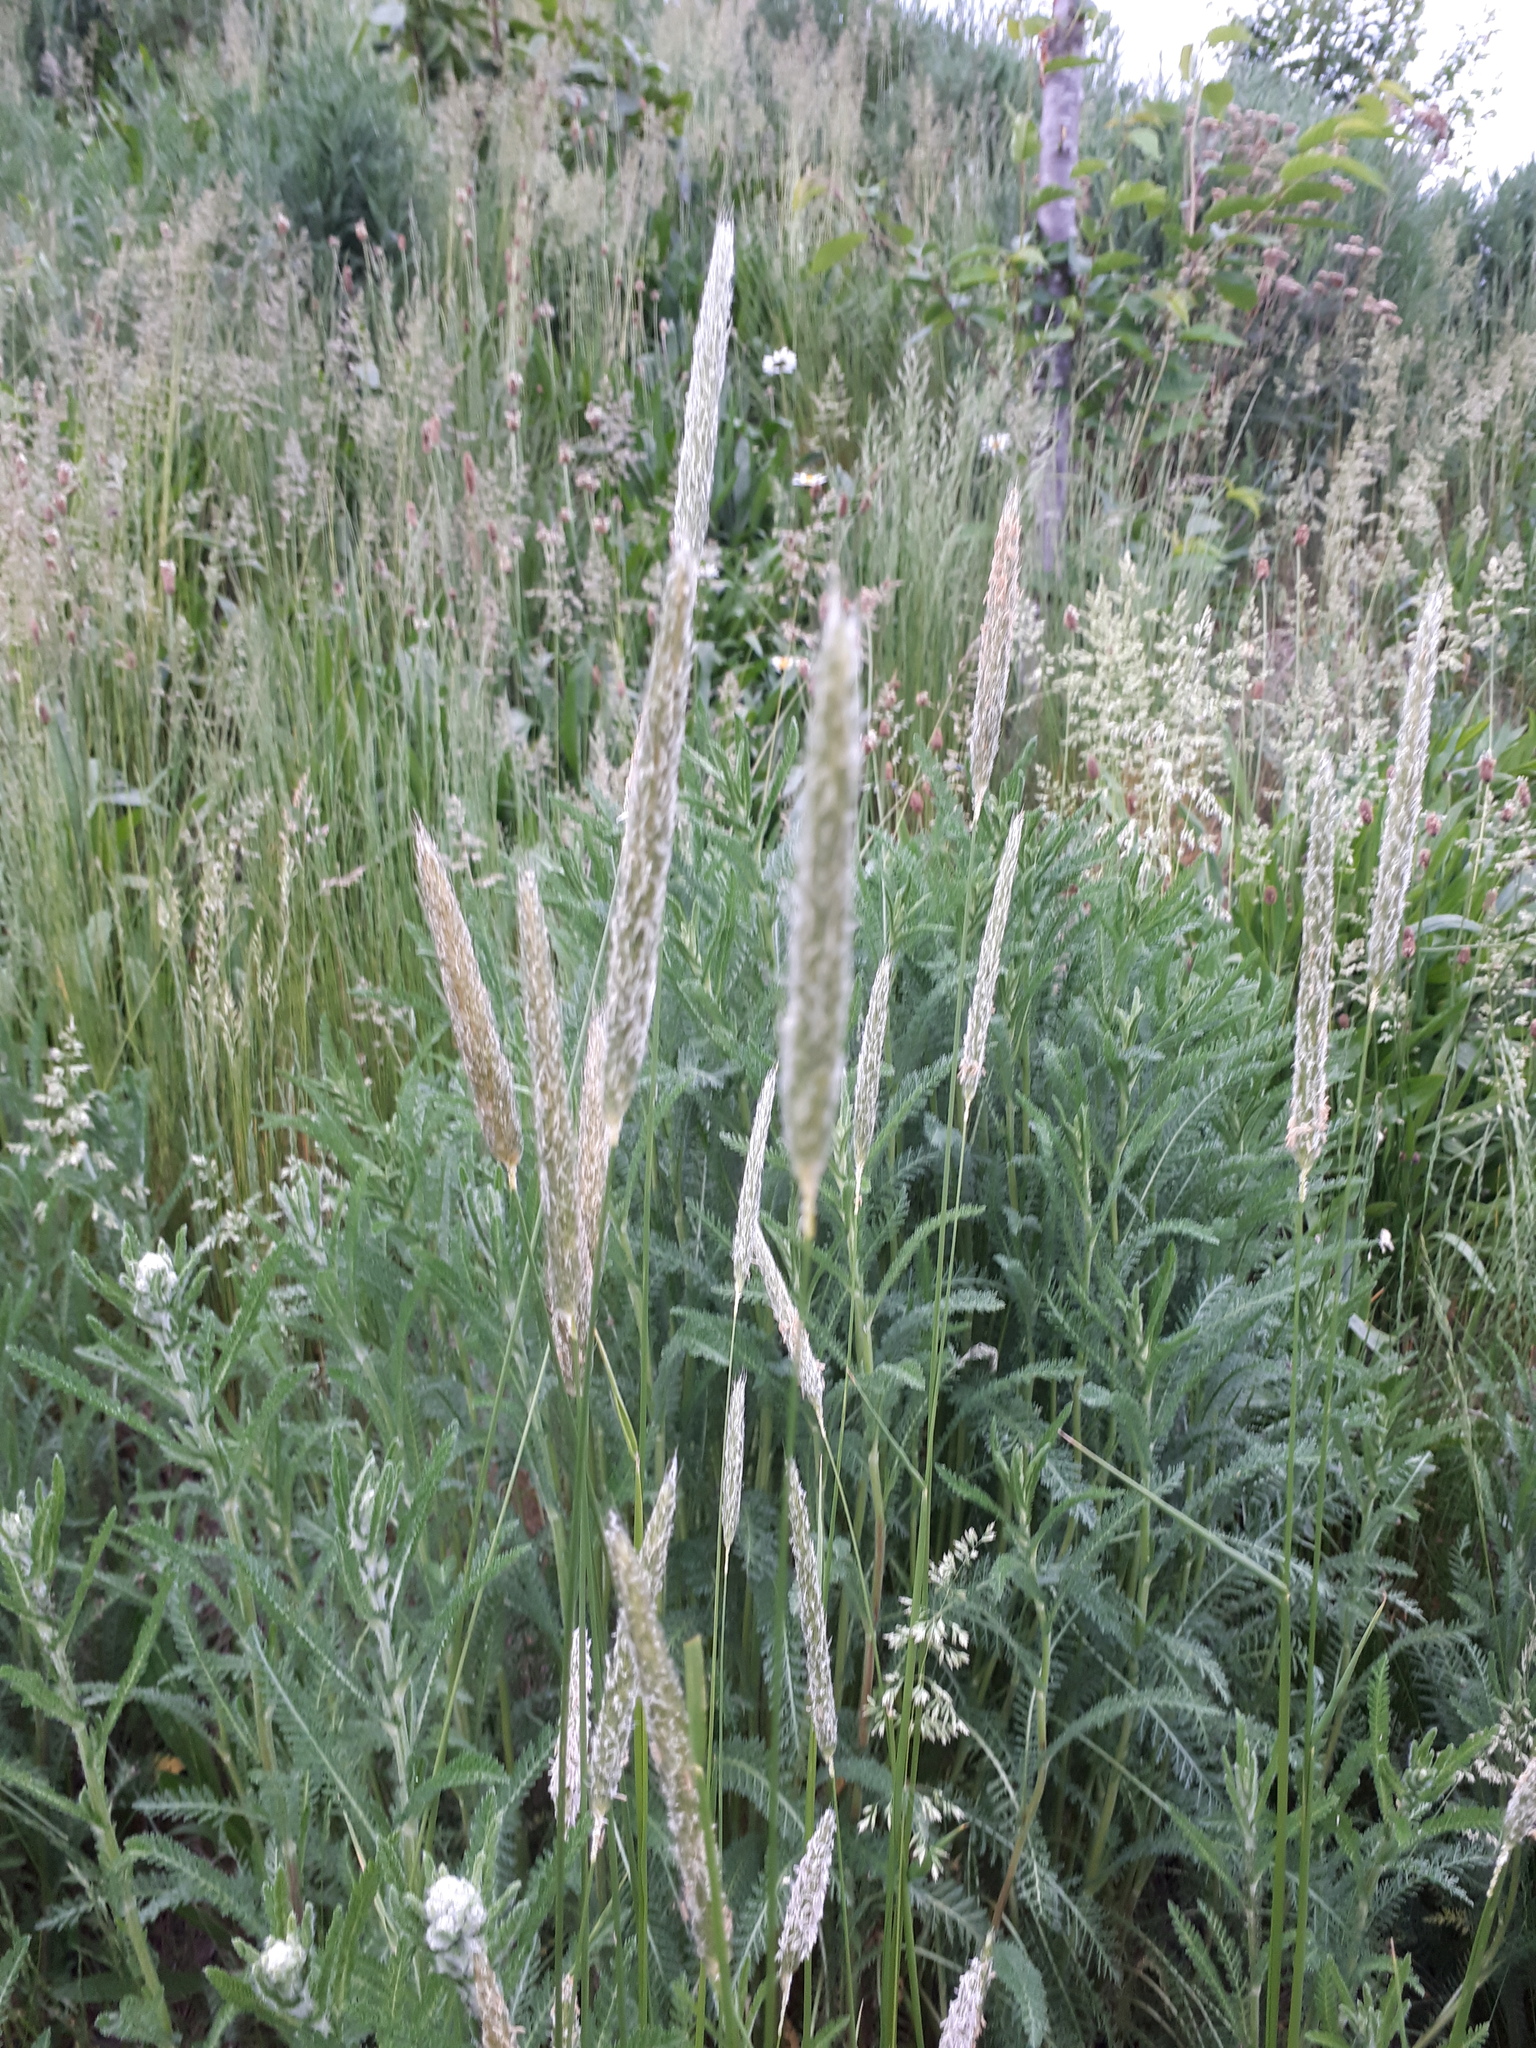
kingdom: Plantae
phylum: Tracheophyta
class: Liliopsida
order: Poales
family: Poaceae
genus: Alopecurus
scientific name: Alopecurus pratensis
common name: Meadow foxtail
